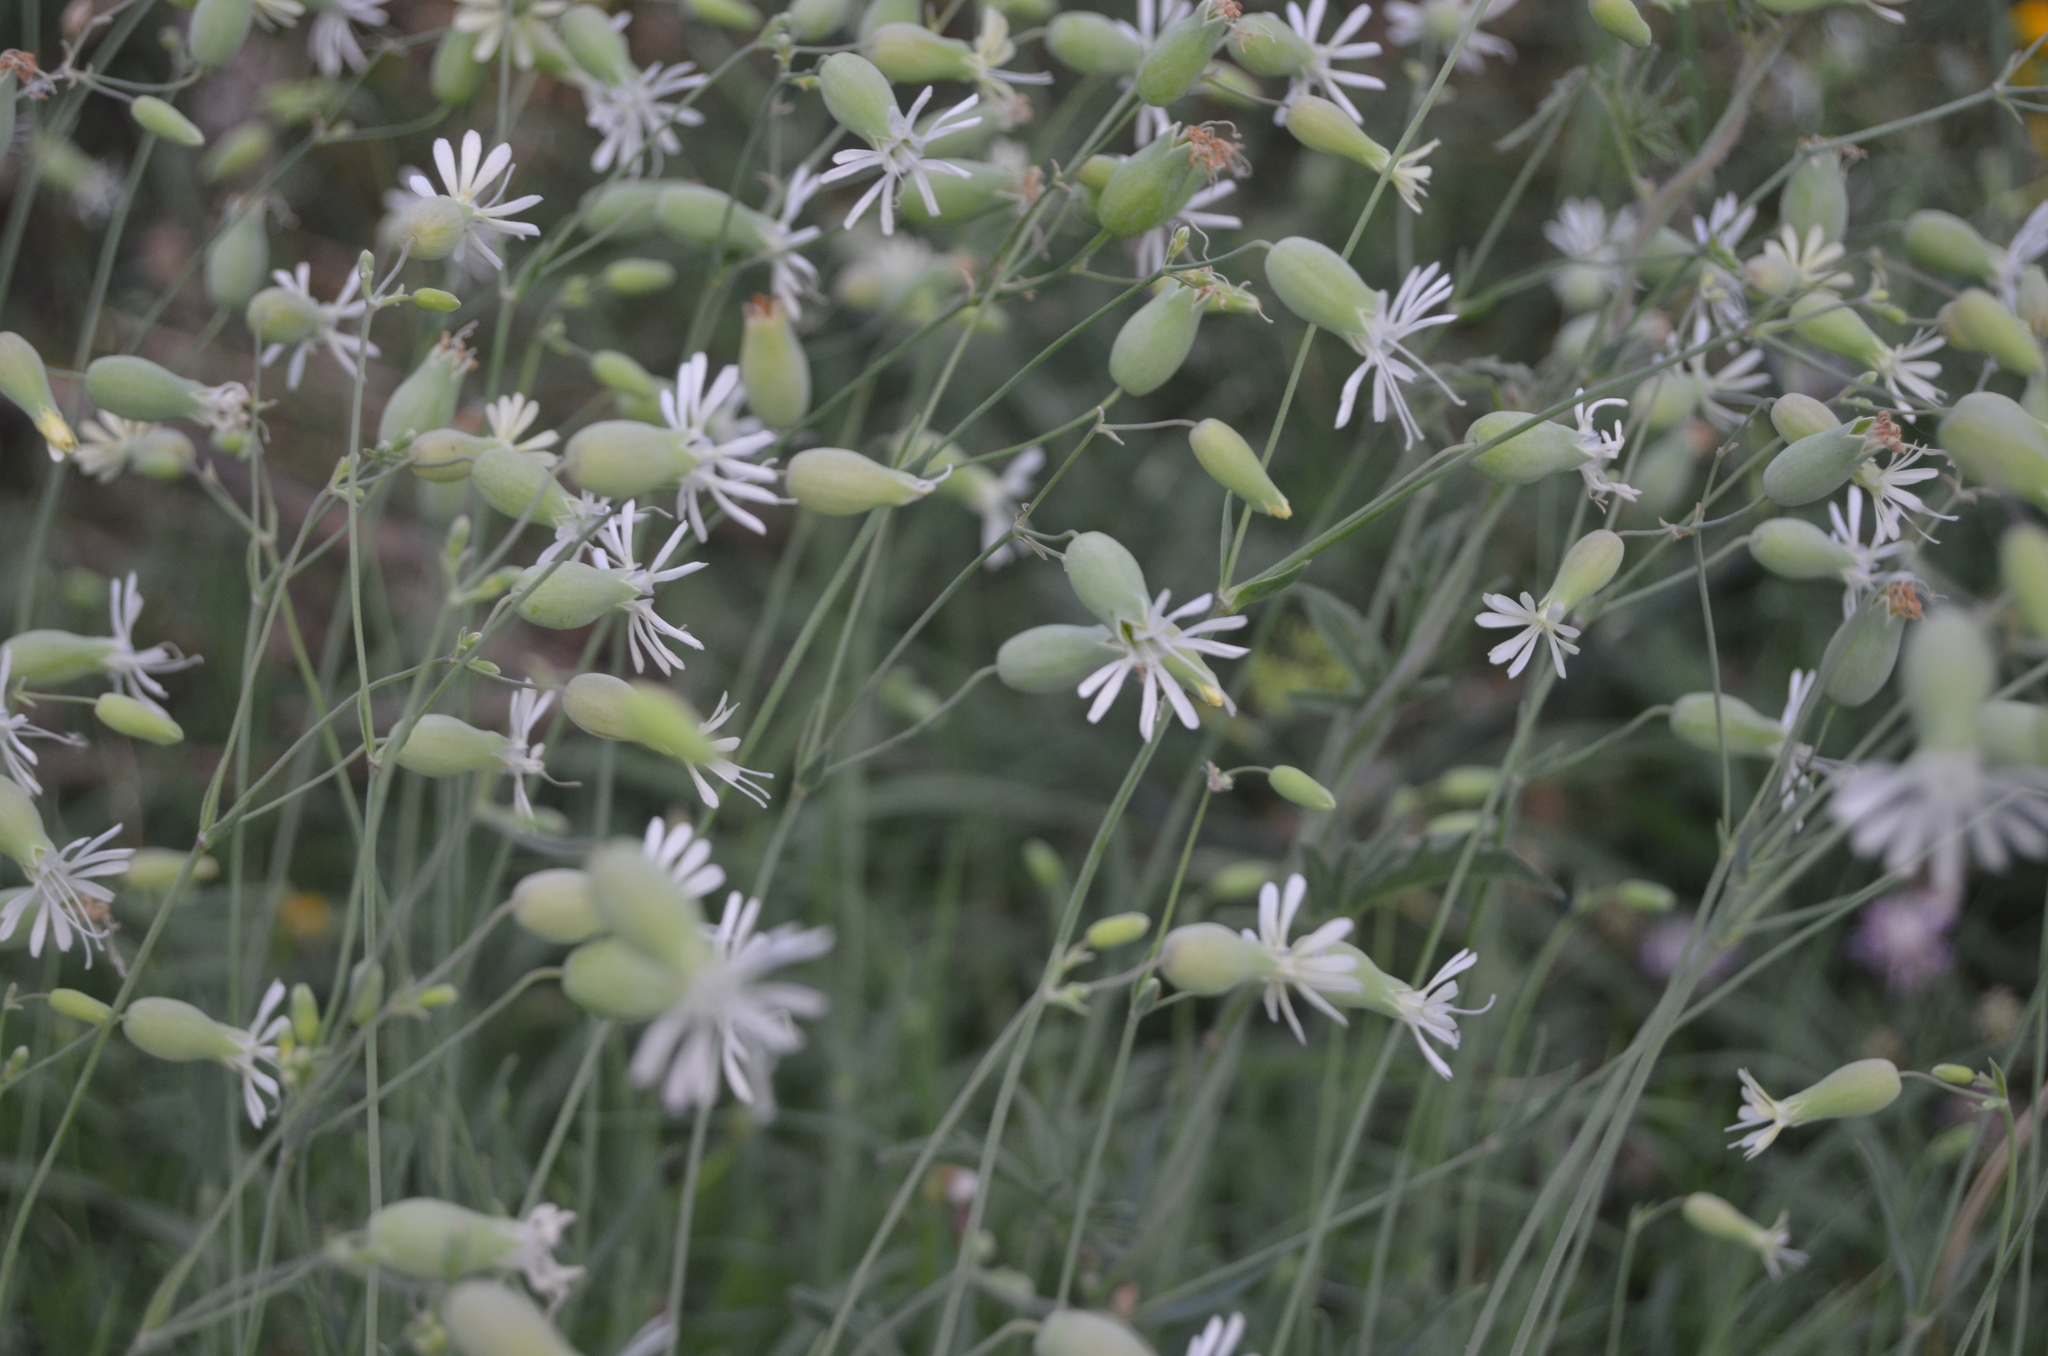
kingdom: Plantae
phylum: Tracheophyta
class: Magnoliopsida
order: Caryophyllales
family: Caryophyllaceae
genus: Silene
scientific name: Silene vulgaris
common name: Bladder campion
